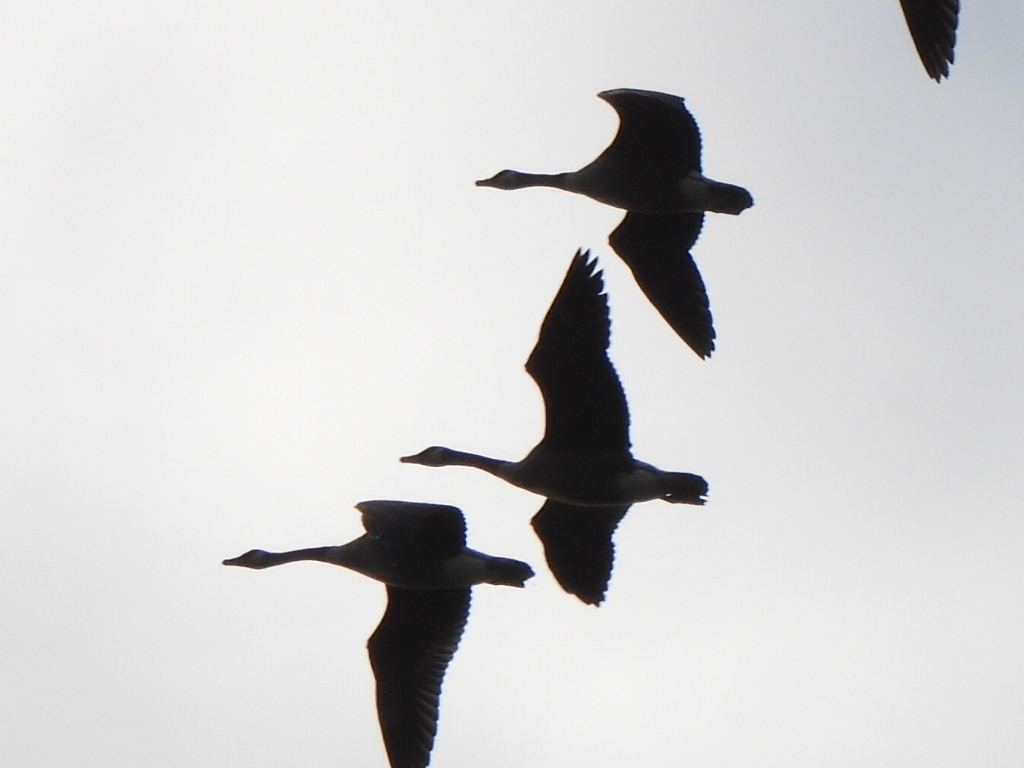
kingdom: Animalia
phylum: Chordata
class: Aves
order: Anseriformes
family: Anatidae
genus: Branta
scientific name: Branta canadensis
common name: Canada goose
